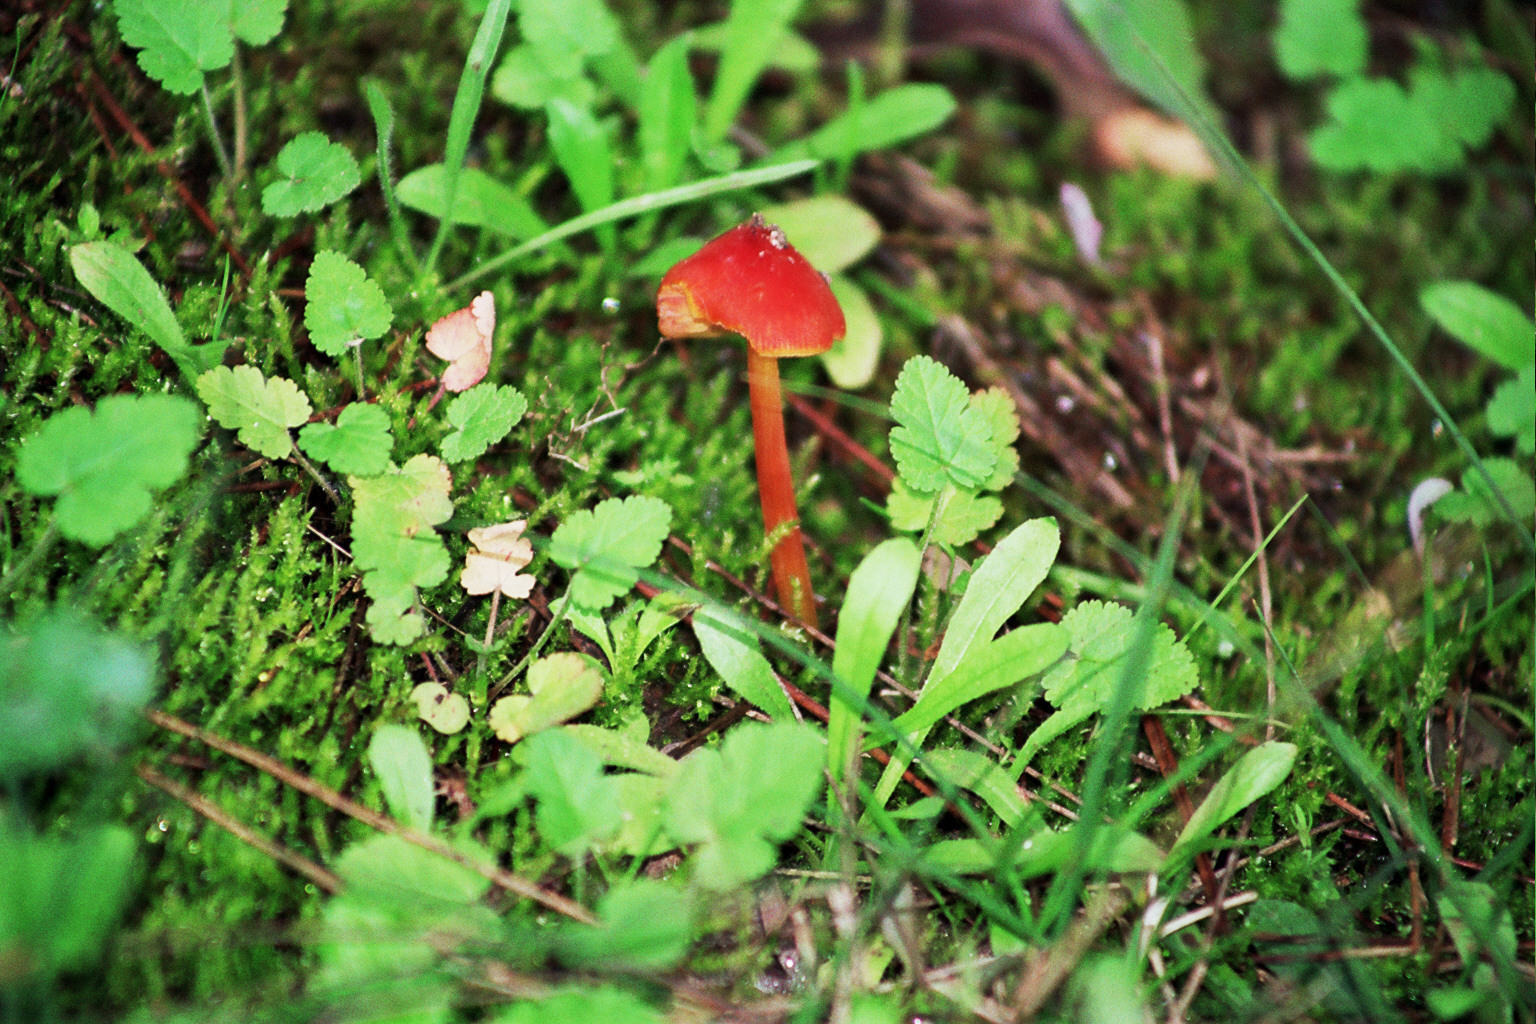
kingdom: Fungi
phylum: Basidiomycota
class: Agaricomycetes
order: Agaricales
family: Hygrophoraceae
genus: Hygrocybe
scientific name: Hygrocybe conica
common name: Blackening wax-cap
